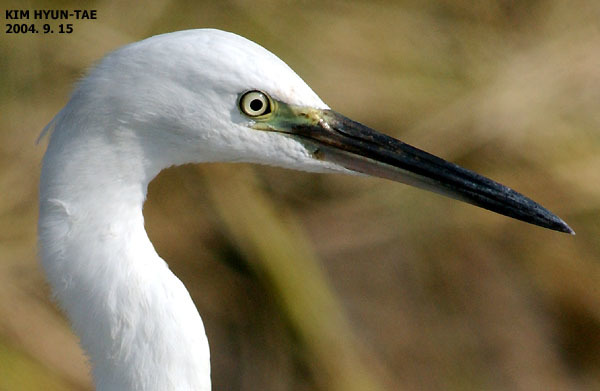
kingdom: Animalia
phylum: Chordata
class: Aves
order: Pelecaniformes
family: Ardeidae
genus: Egretta
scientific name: Egretta garzetta
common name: Little egret
